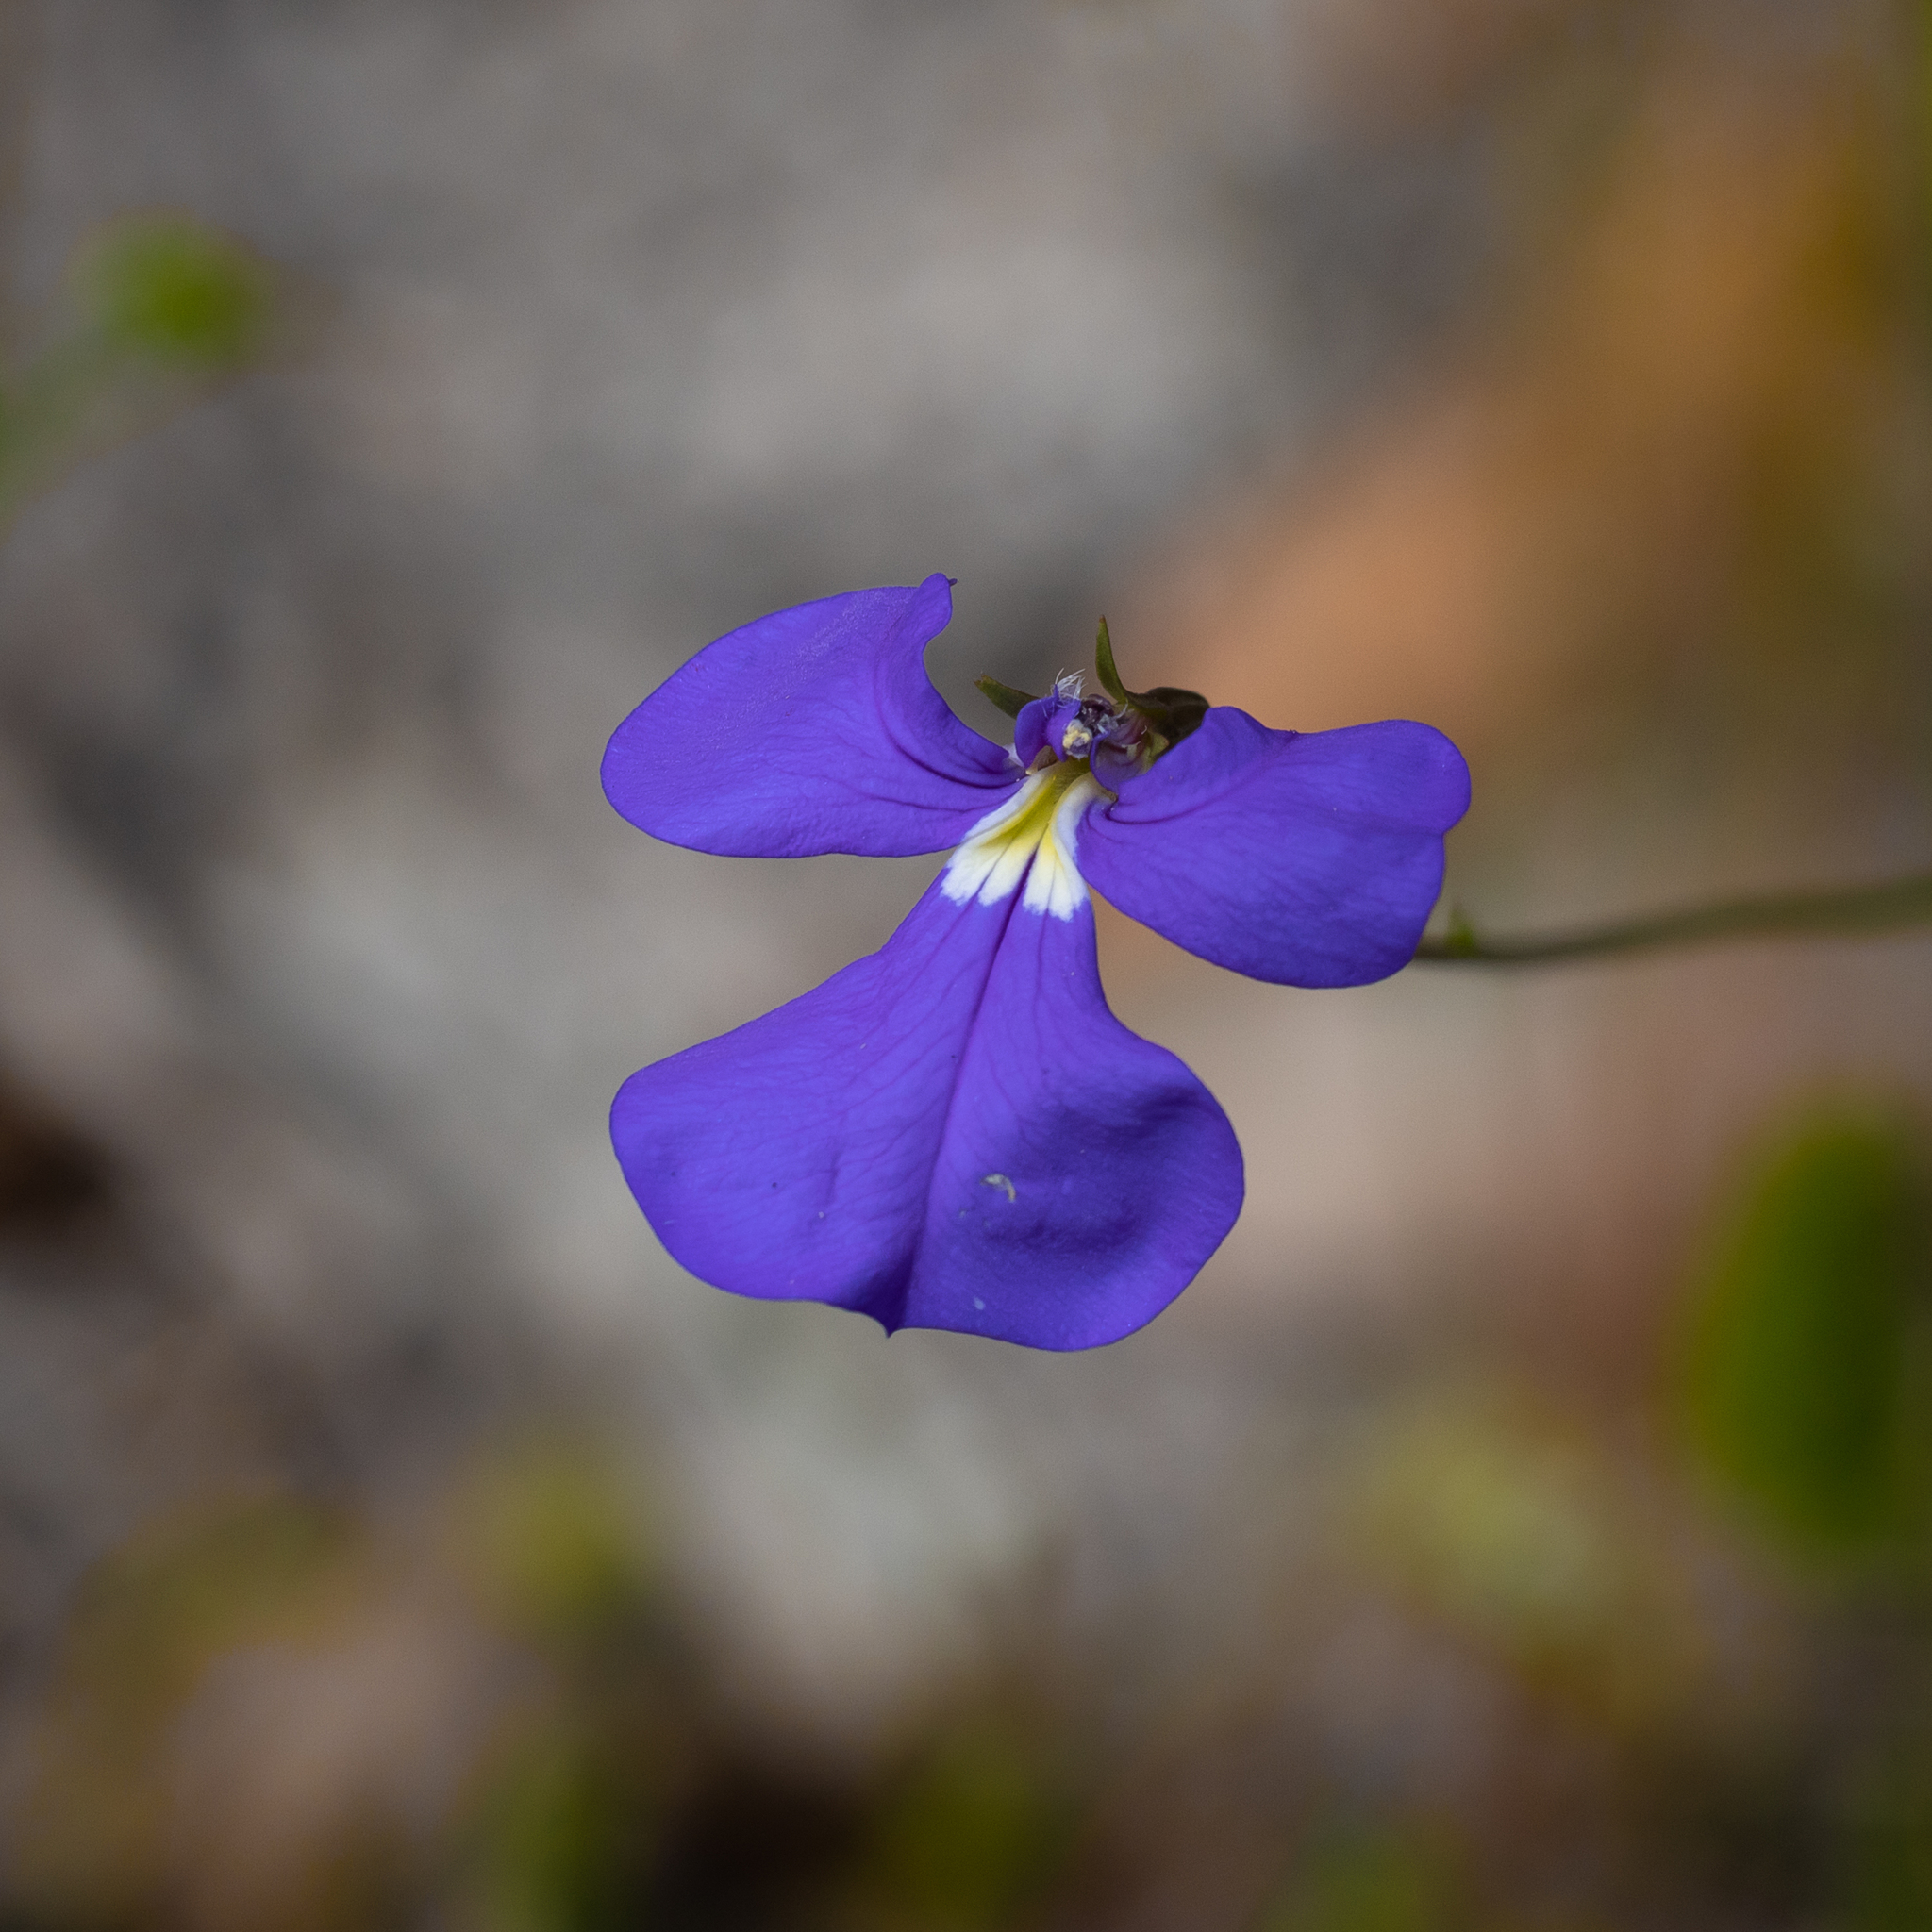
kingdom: Plantae
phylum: Tracheophyta
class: Magnoliopsida
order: Asterales
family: Campanulaceae
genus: Lobelia
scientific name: Lobelia tenuior
